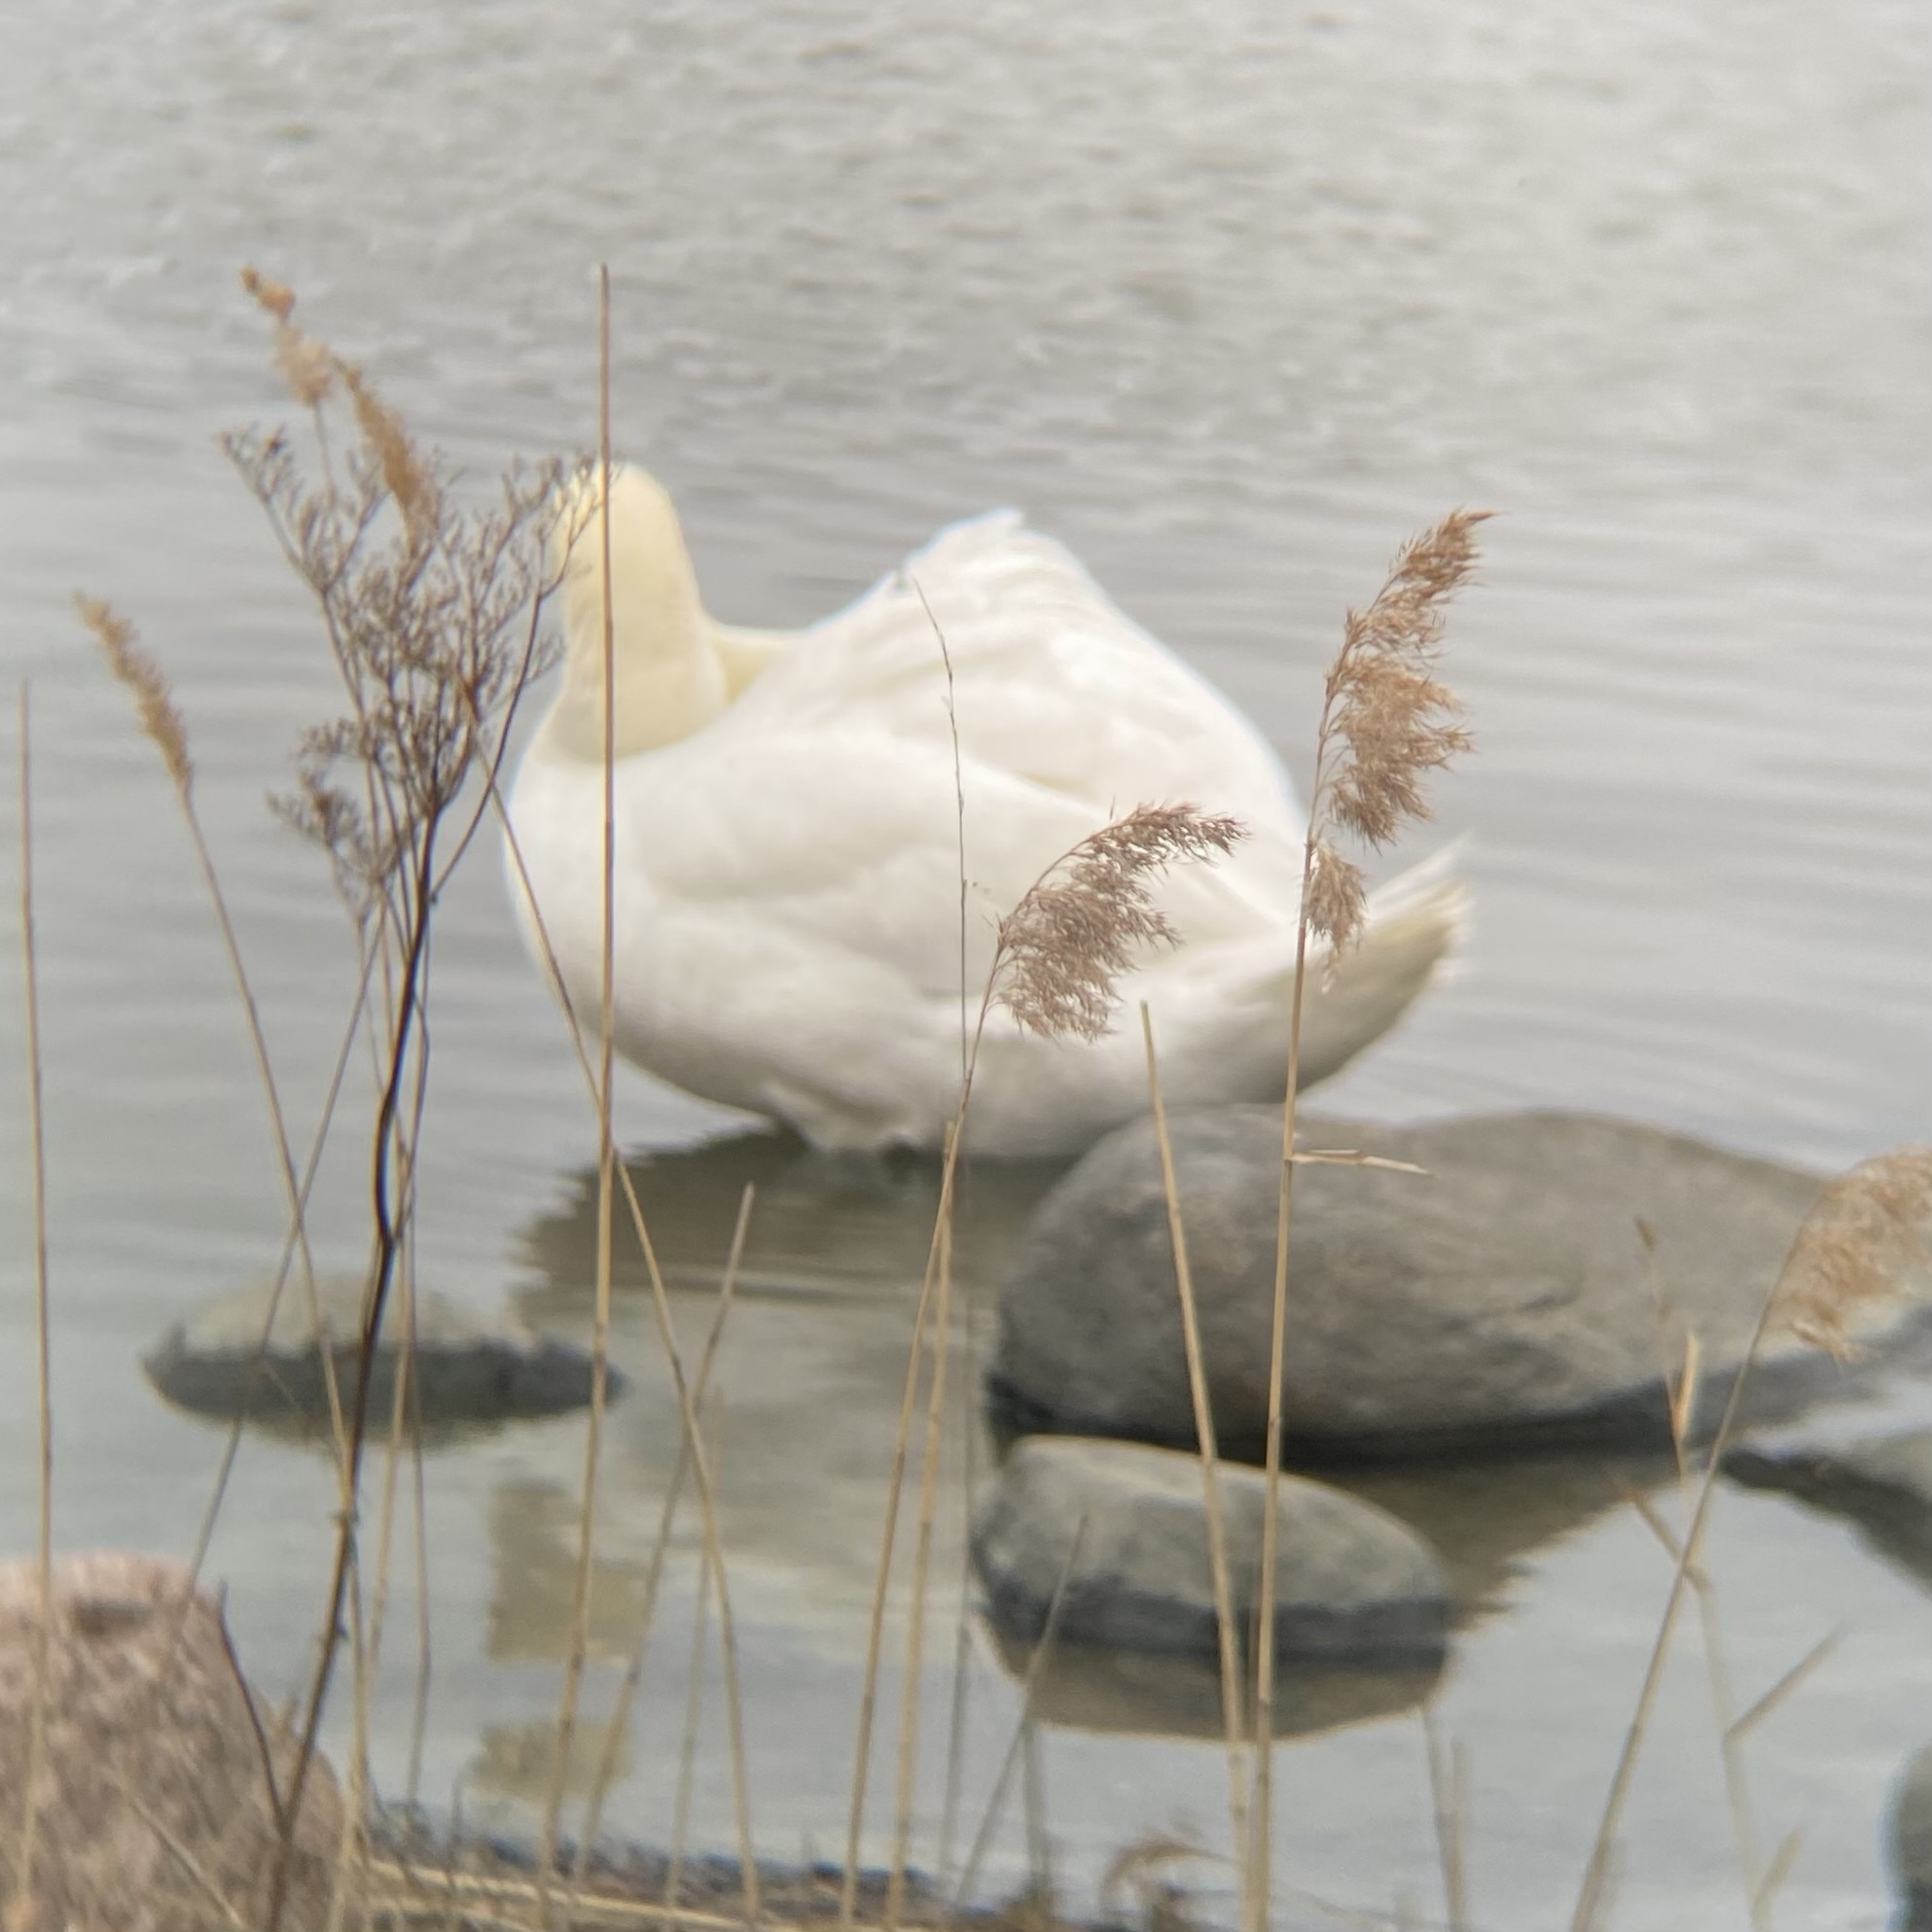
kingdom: Animalia
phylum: Chordata
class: Aves
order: Anseriformes
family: Anatidae
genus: Cygnus
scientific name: Cygnus olor
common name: Mute swan
